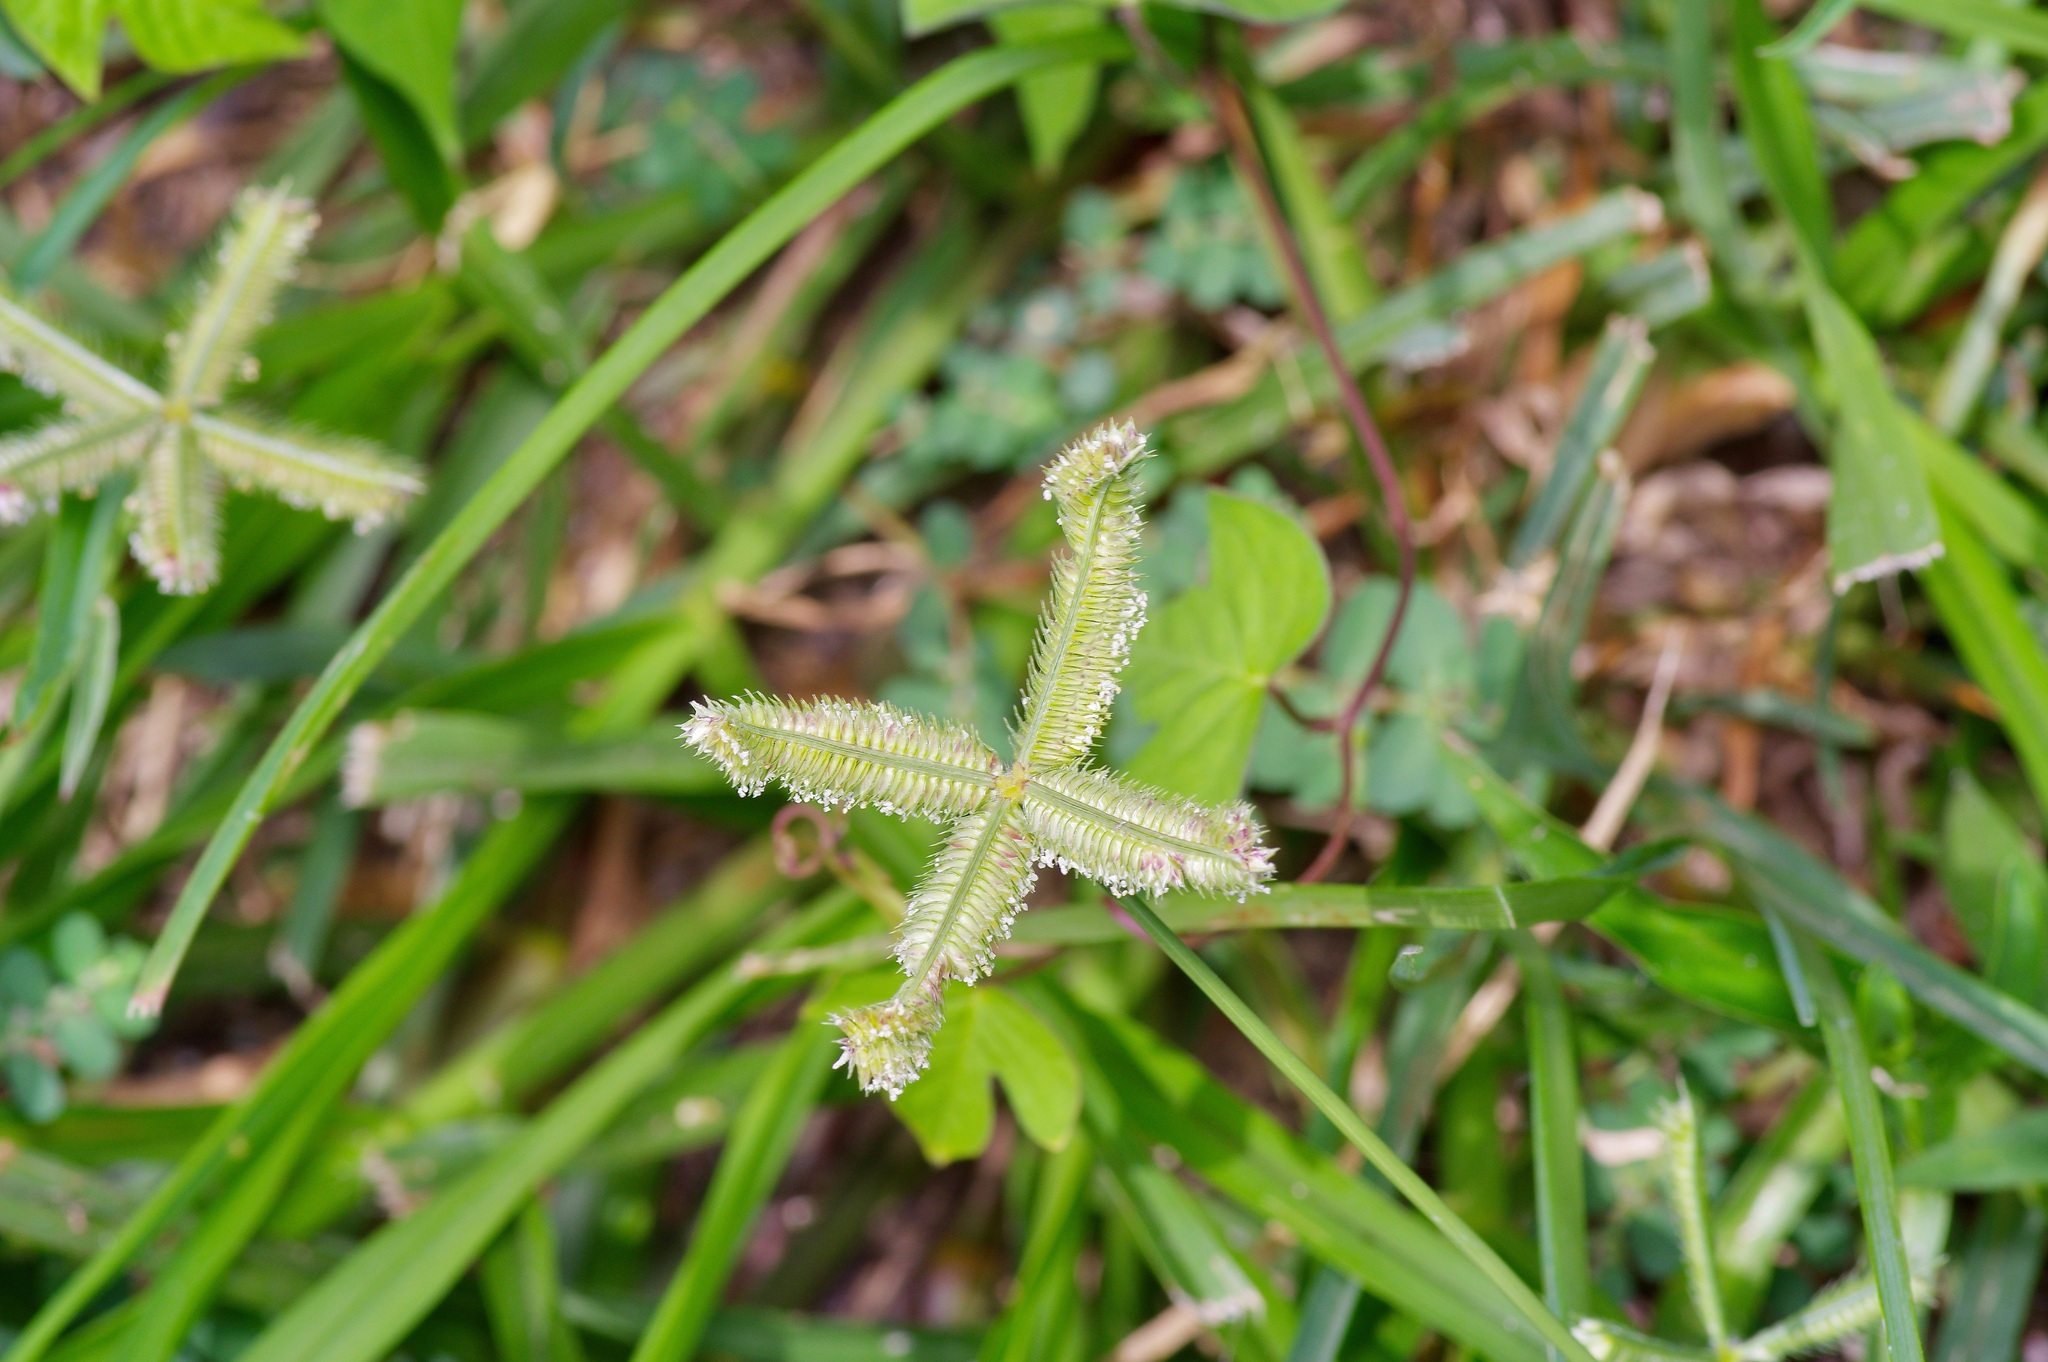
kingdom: Plantae
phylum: Tracheophyta
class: Liliopsida
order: Poales
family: Poaceae
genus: Dactyloctenium
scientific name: Dactyloctenium aegyptium
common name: Egyptian grass
